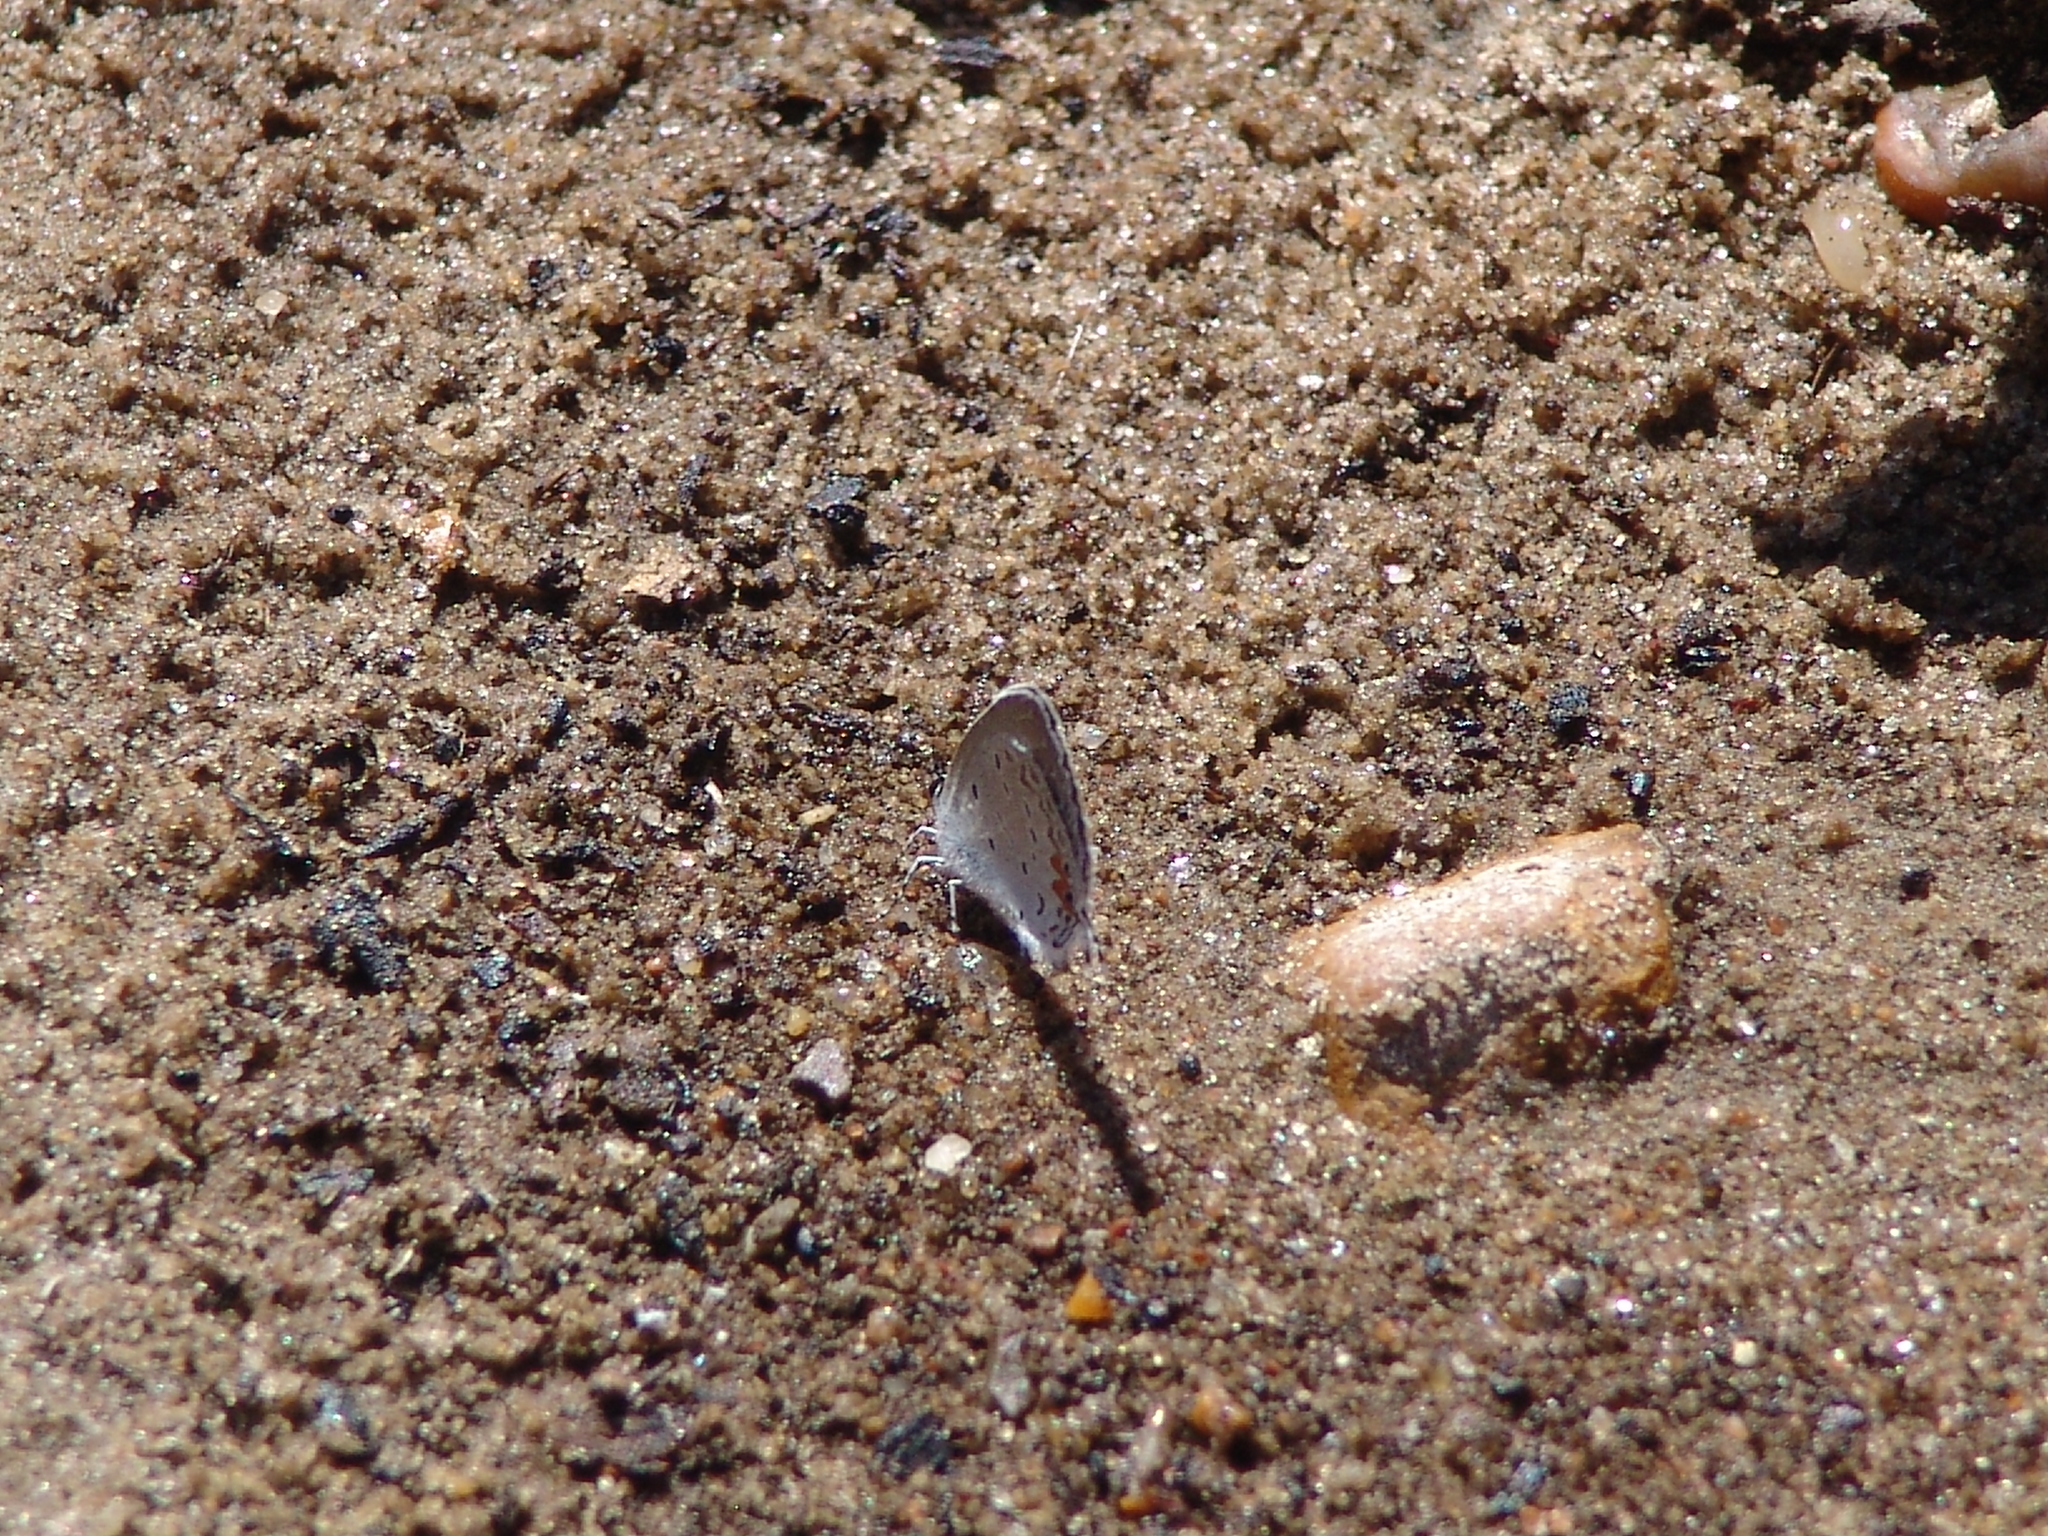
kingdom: Animalia
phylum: Arthropoda
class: Insecta
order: Lepidoptera
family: Lycaenidae
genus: Elkalyce
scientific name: Elkalyce comyntas
